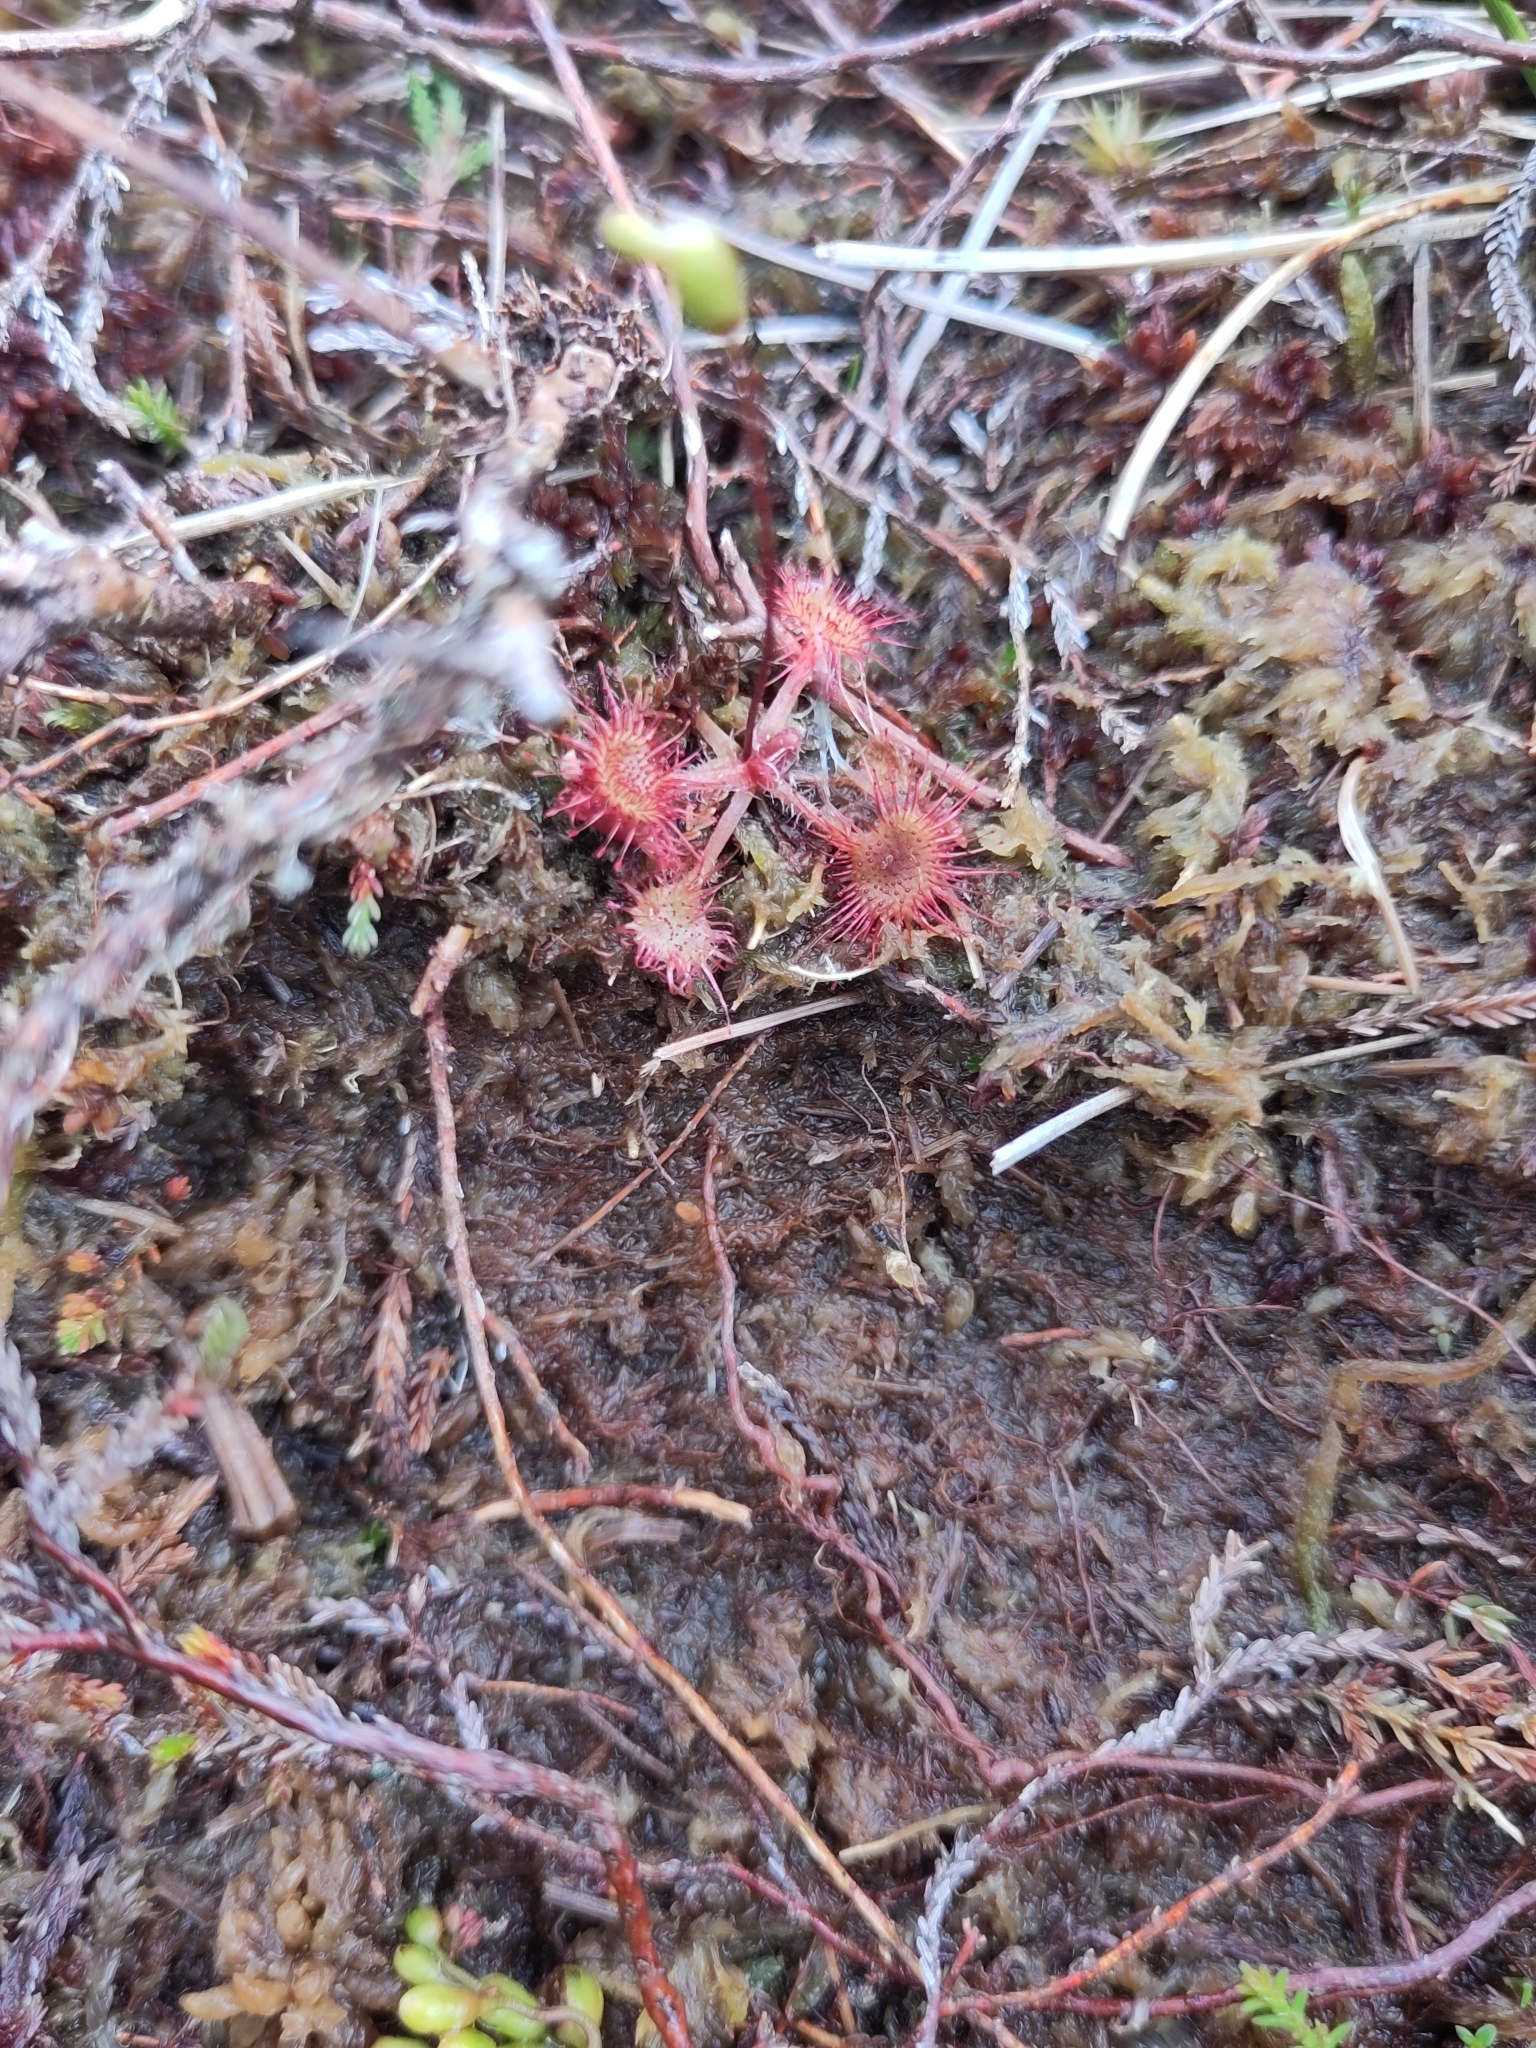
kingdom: Plantae
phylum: Tracheophyta
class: Magnoliopsida
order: Caryophyllales
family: Droseraceae
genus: Drosera
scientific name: Drosera rotundifolia
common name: Round-leaved sundew
